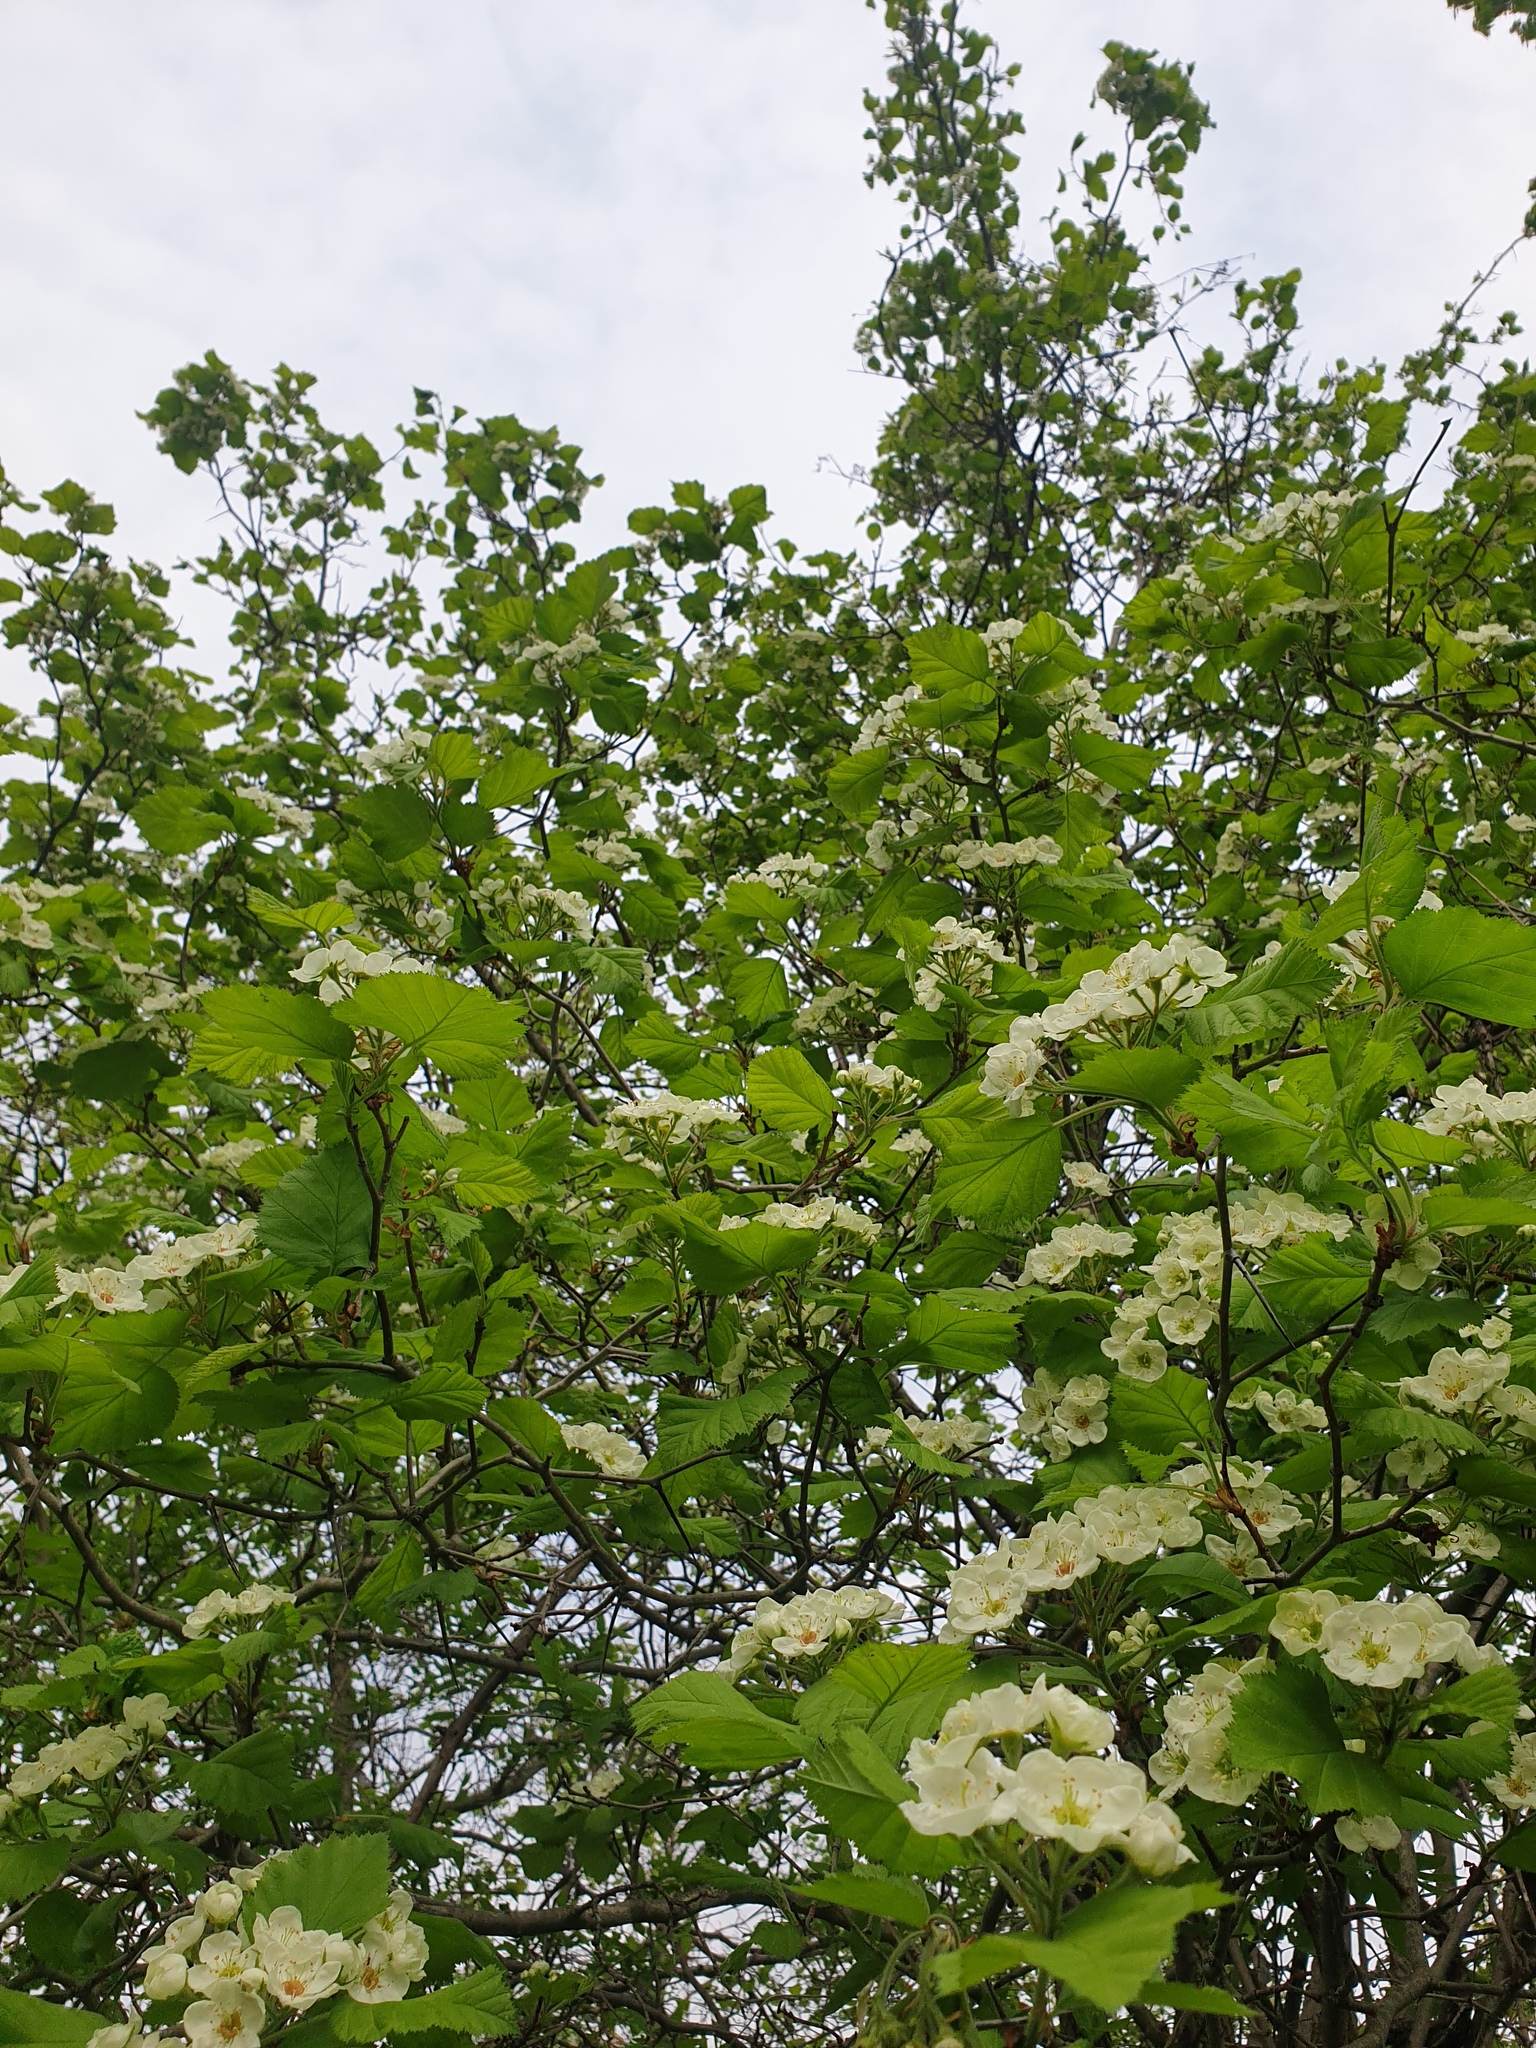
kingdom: Plantae
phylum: Tracheophyta
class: Magnoliopsida
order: Rosales
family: Rosaceae
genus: Crataegus
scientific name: Crataegus submollis
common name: Hairy cockspurthorn
